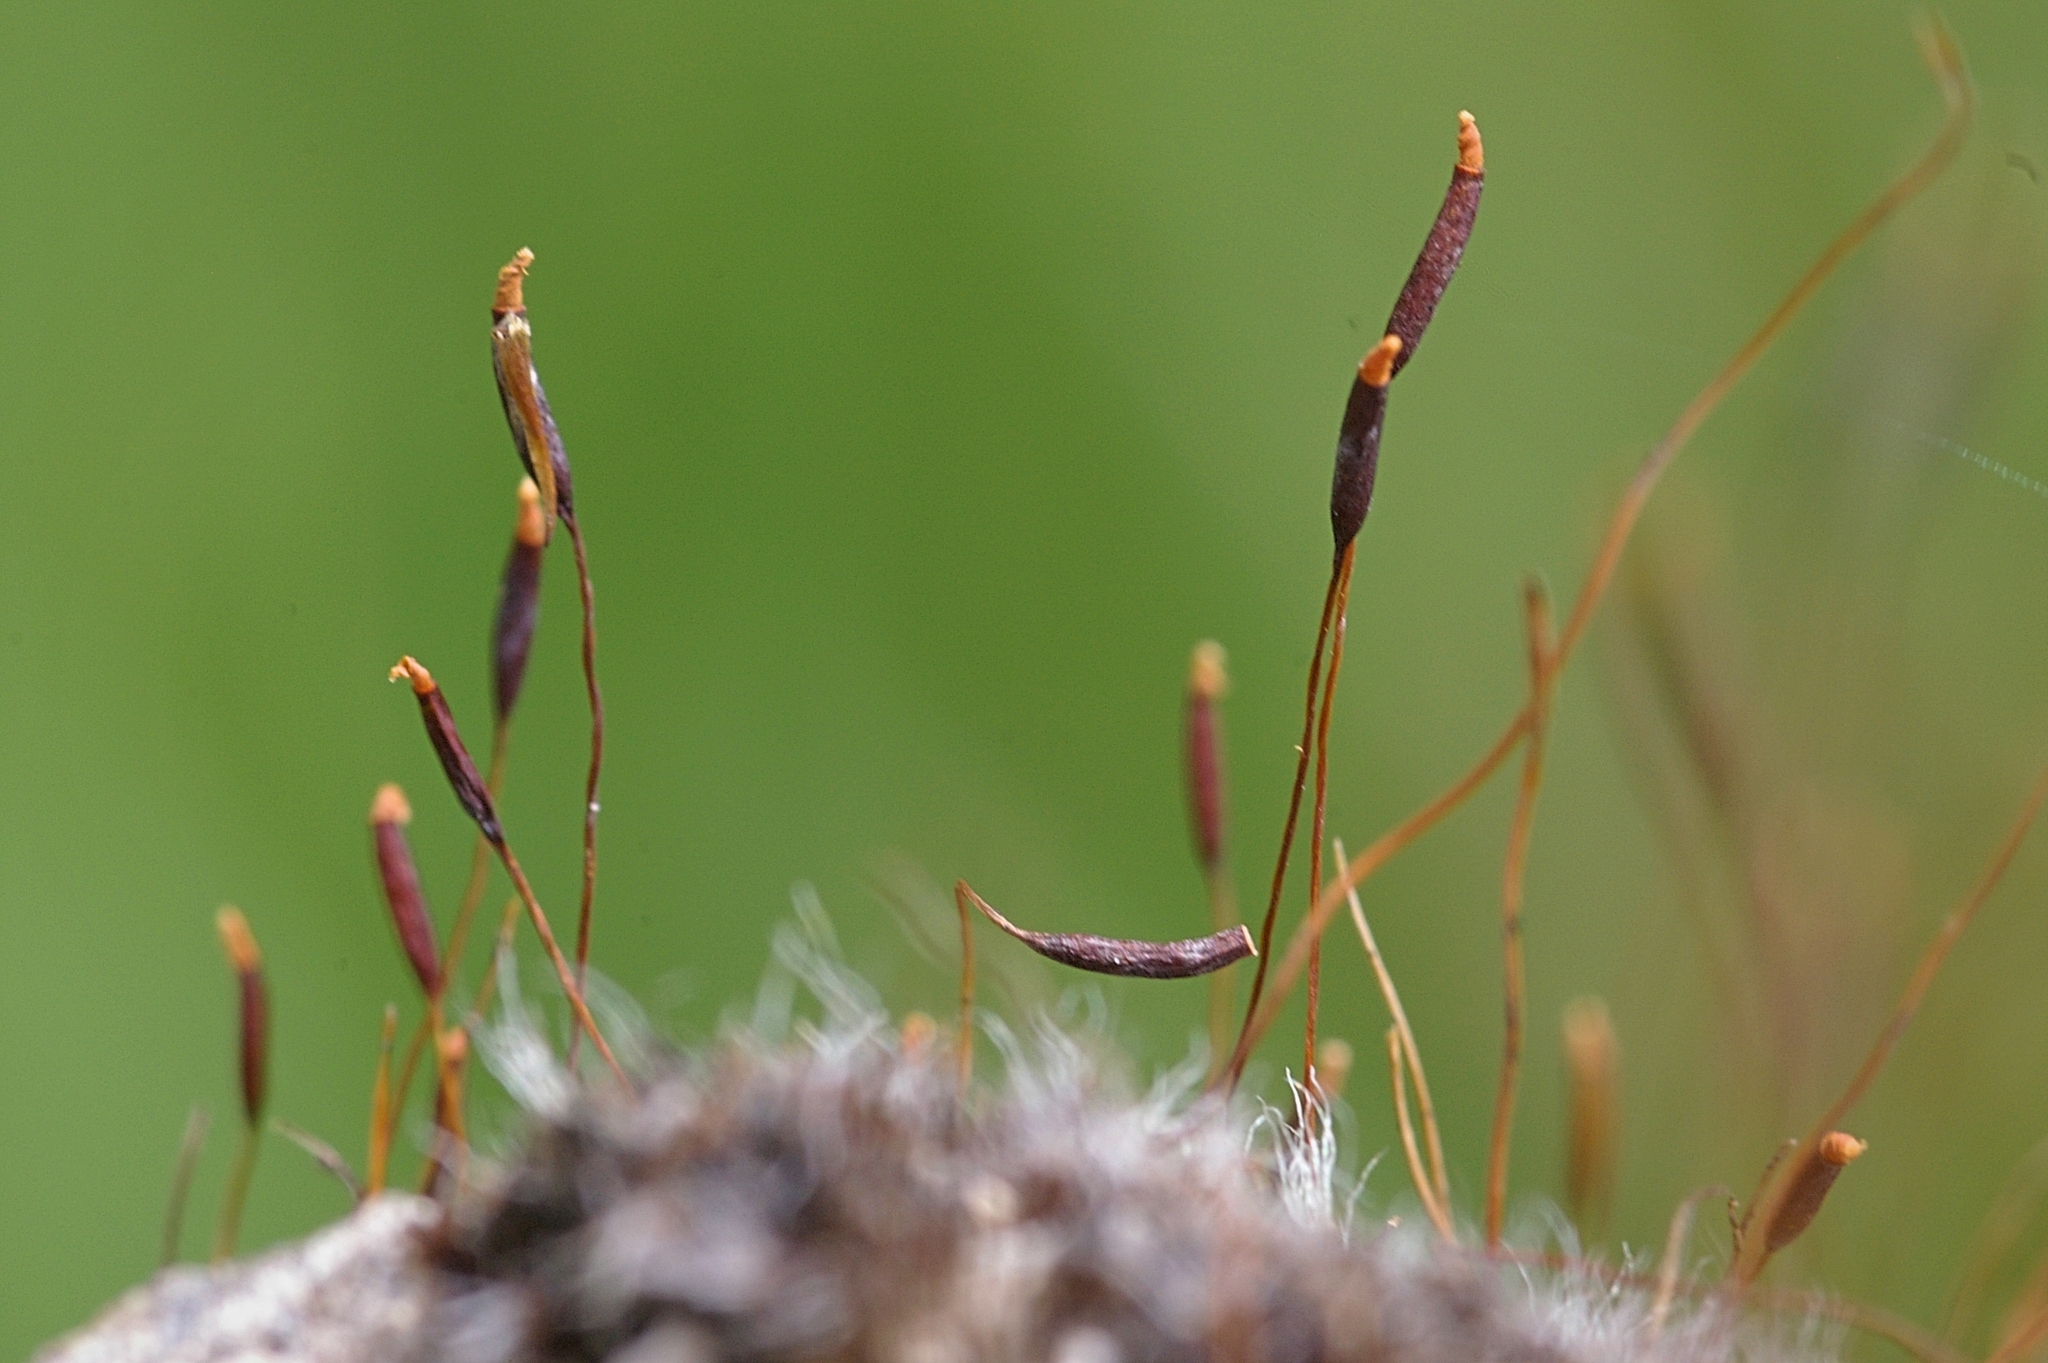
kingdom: Plantae
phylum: Bryophyta
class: Bryopsida
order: Pottiales
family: Pottiaceae
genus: Tortula
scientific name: Tortula muralis
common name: Wall screw-moss
